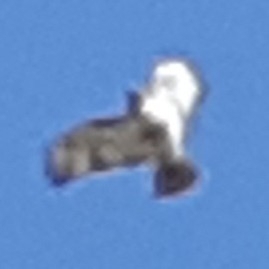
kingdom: Animalia
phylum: Chordata
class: Aves
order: Accipitriformes
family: Accipitridae
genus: Buteo
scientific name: Buteo jamaicensis
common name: Red-tailed hawk
